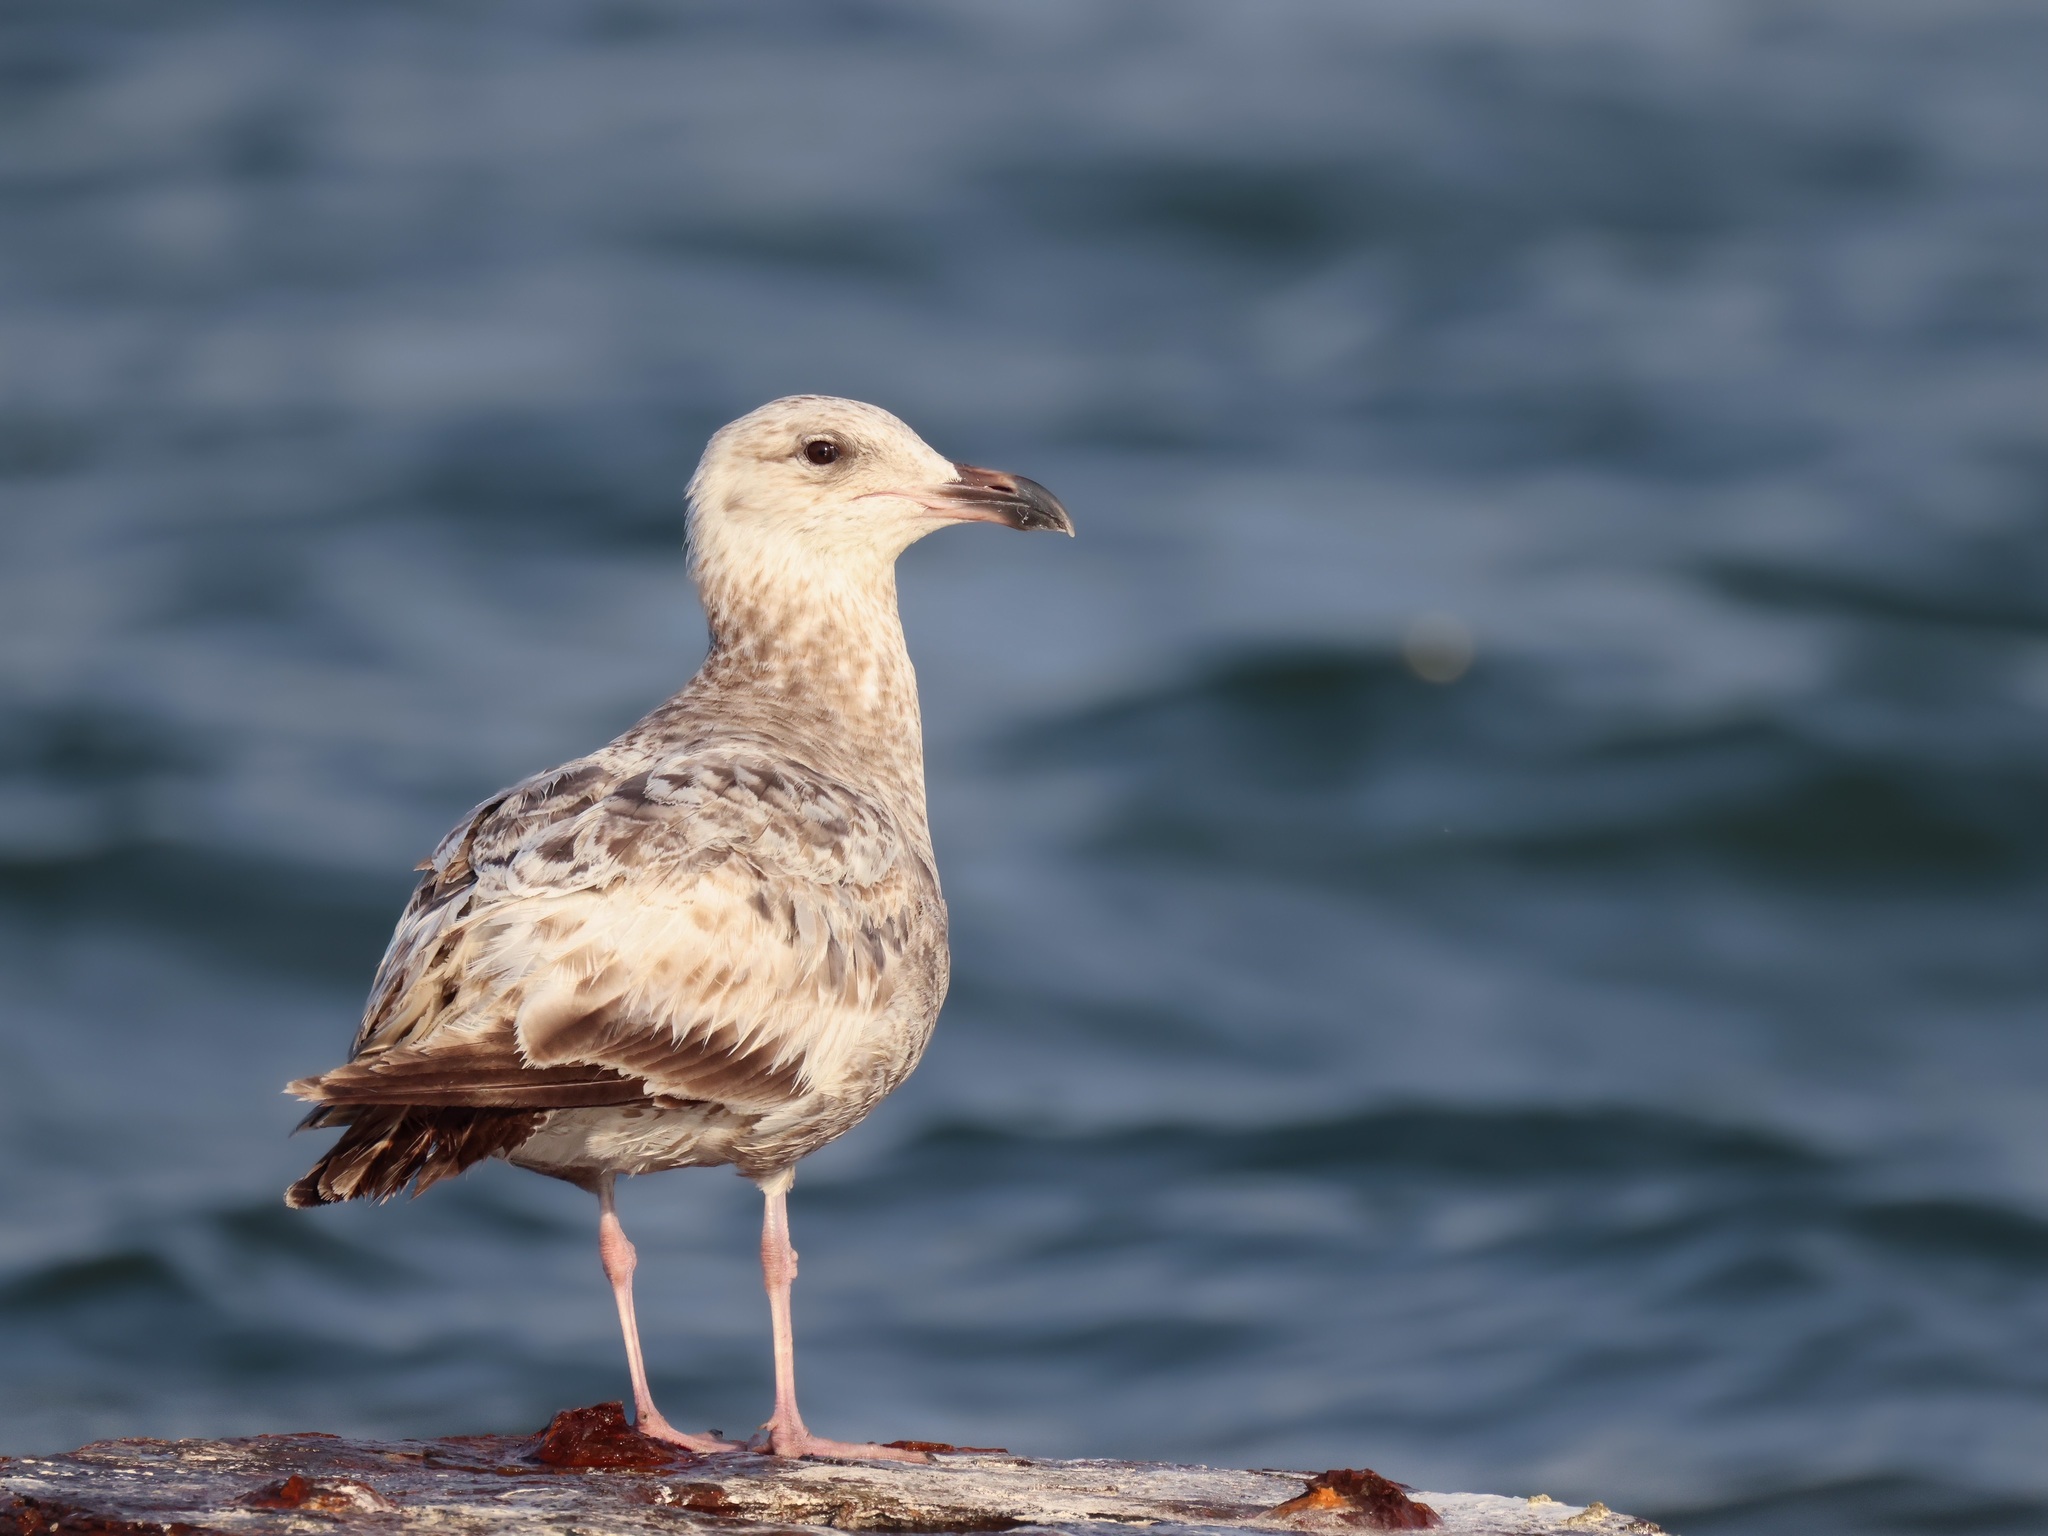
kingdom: Animalia
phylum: Chordata
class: Aves
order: Charadriiformes
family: Laridae
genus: Larus
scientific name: Larus argentatus
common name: Herring gull
